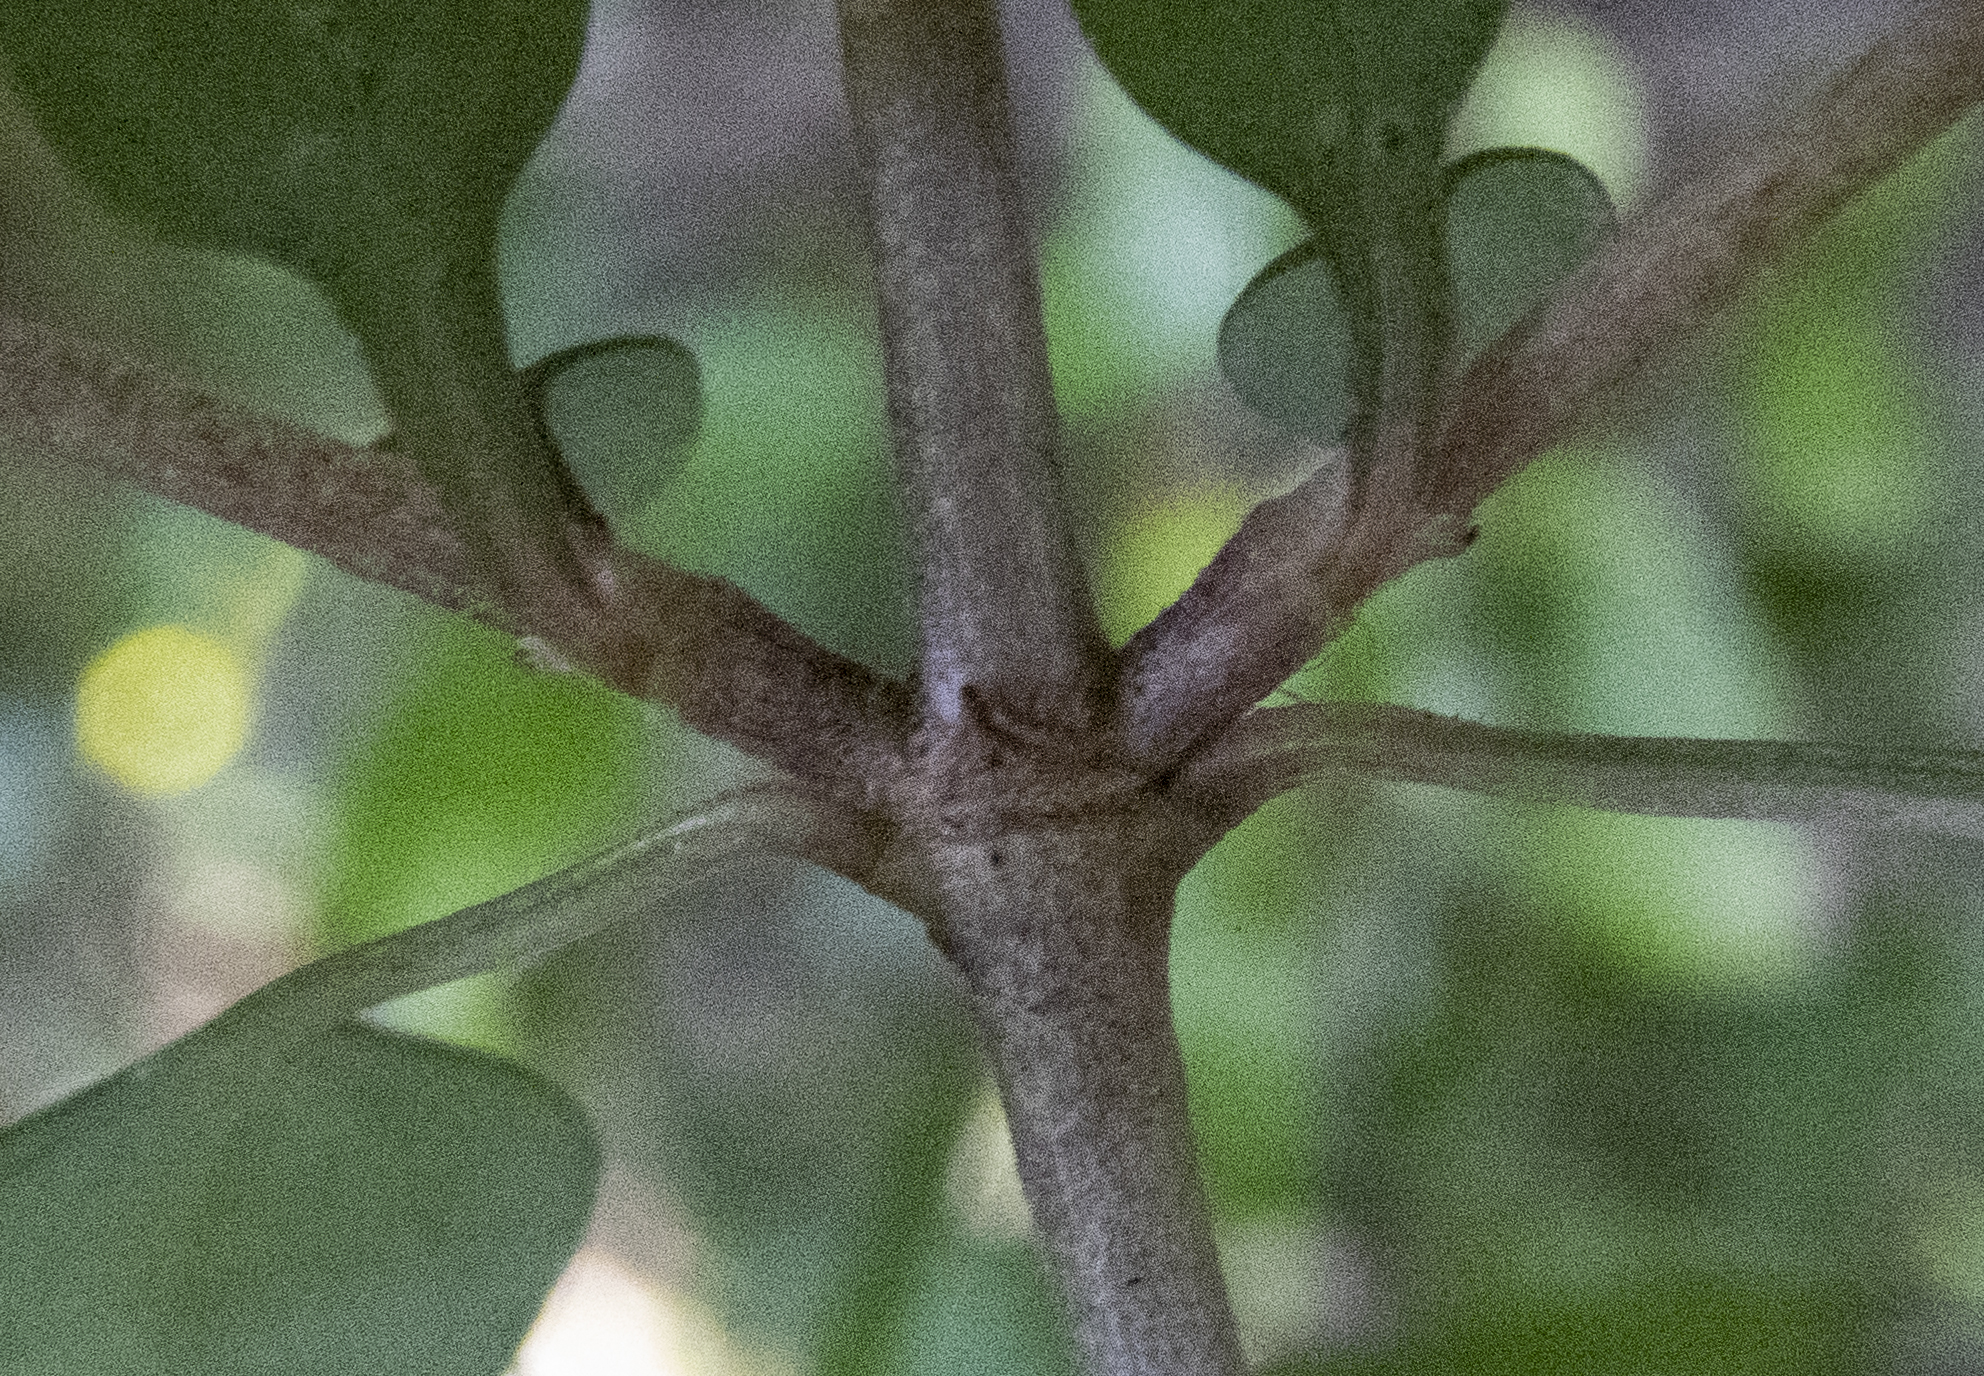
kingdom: Plantae
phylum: Tracheophyta
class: Magnoliopsida
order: Gentianales
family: Rubiaceae
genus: Coprosma
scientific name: Coprosma cunninghamii
